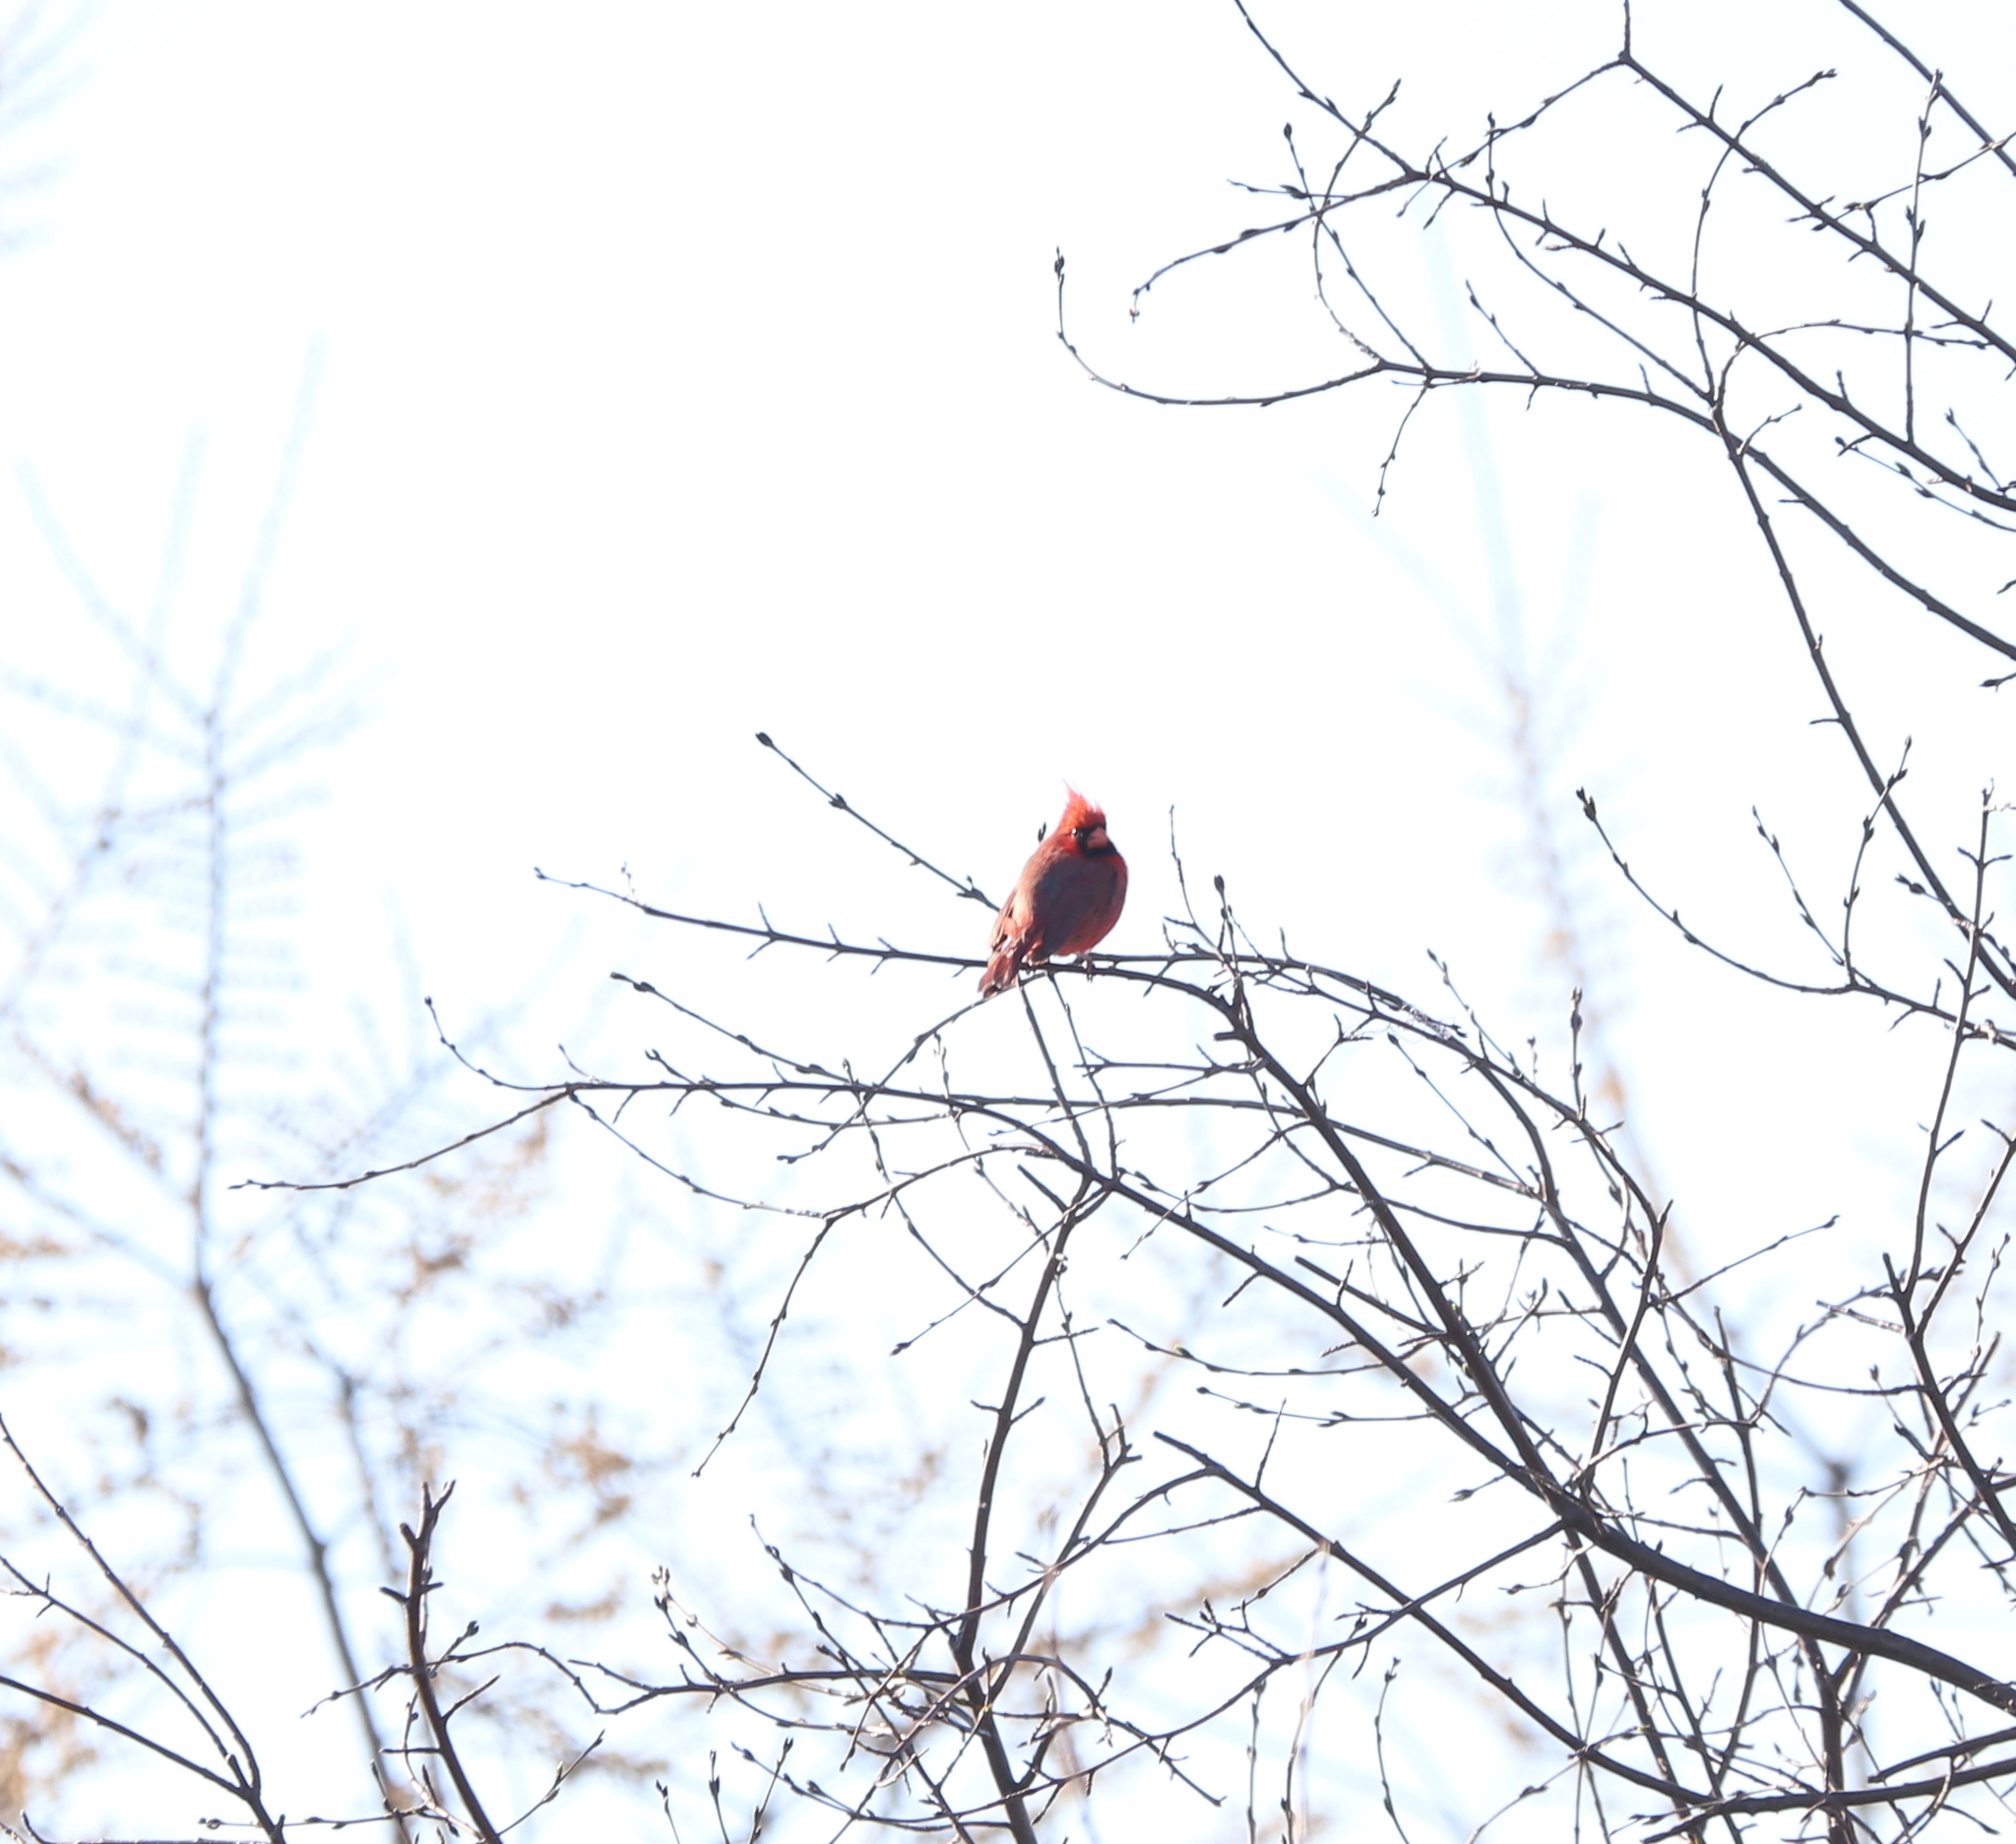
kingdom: Animalia
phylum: Chordata
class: Aves
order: Passeriformes
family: Cardinalidae
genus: Cardinalis
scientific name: Cardinalis cardinalis
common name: Northern cardinal
